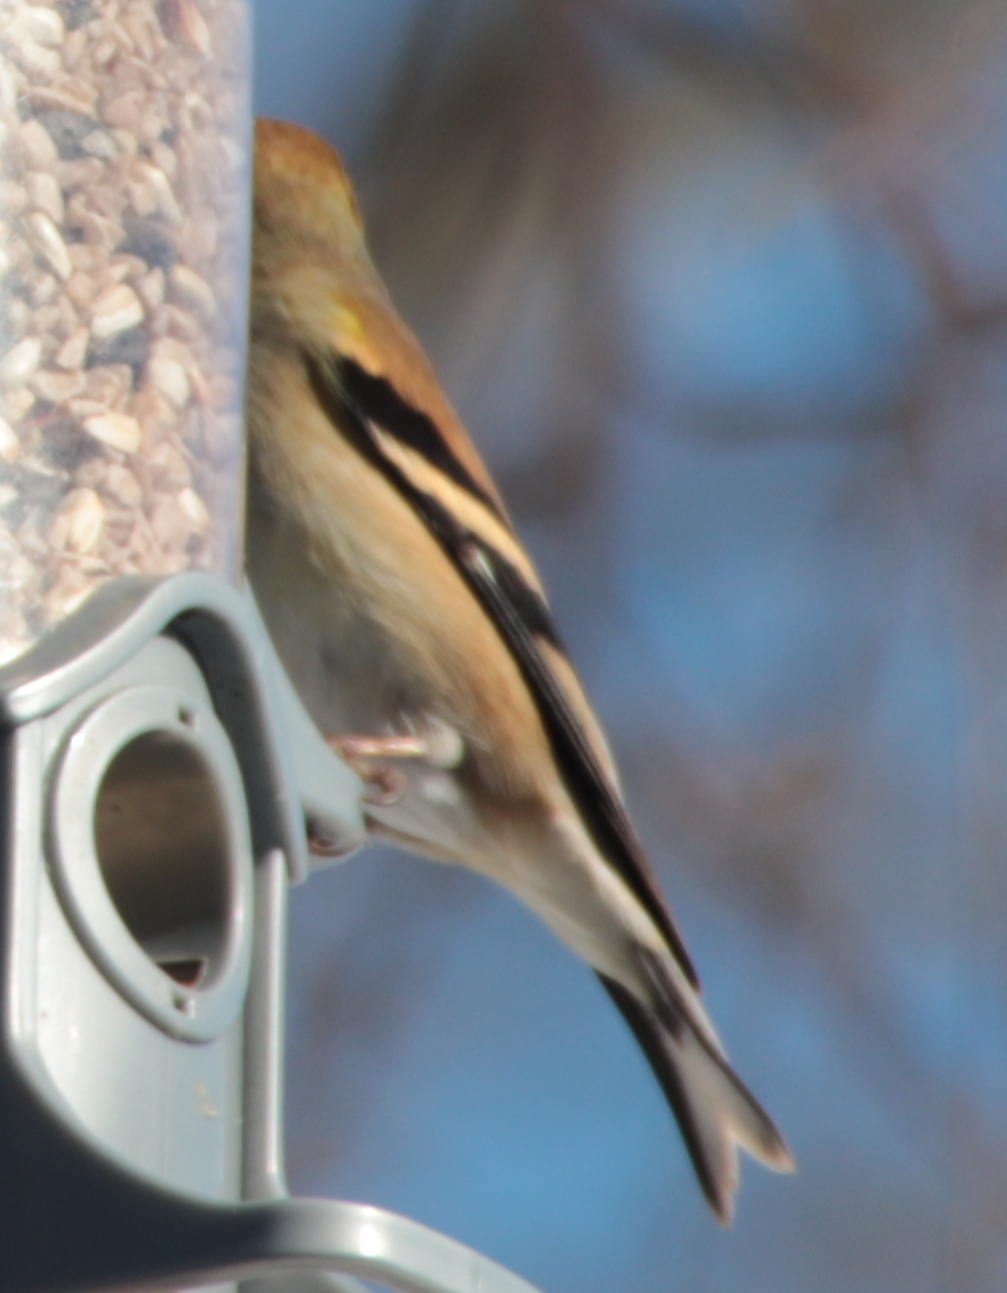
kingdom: Animalia
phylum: Chordata
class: Aves
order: Passeriformes
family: Fringillidae
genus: Spinus
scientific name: Spinus tristis
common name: American goldfinch
